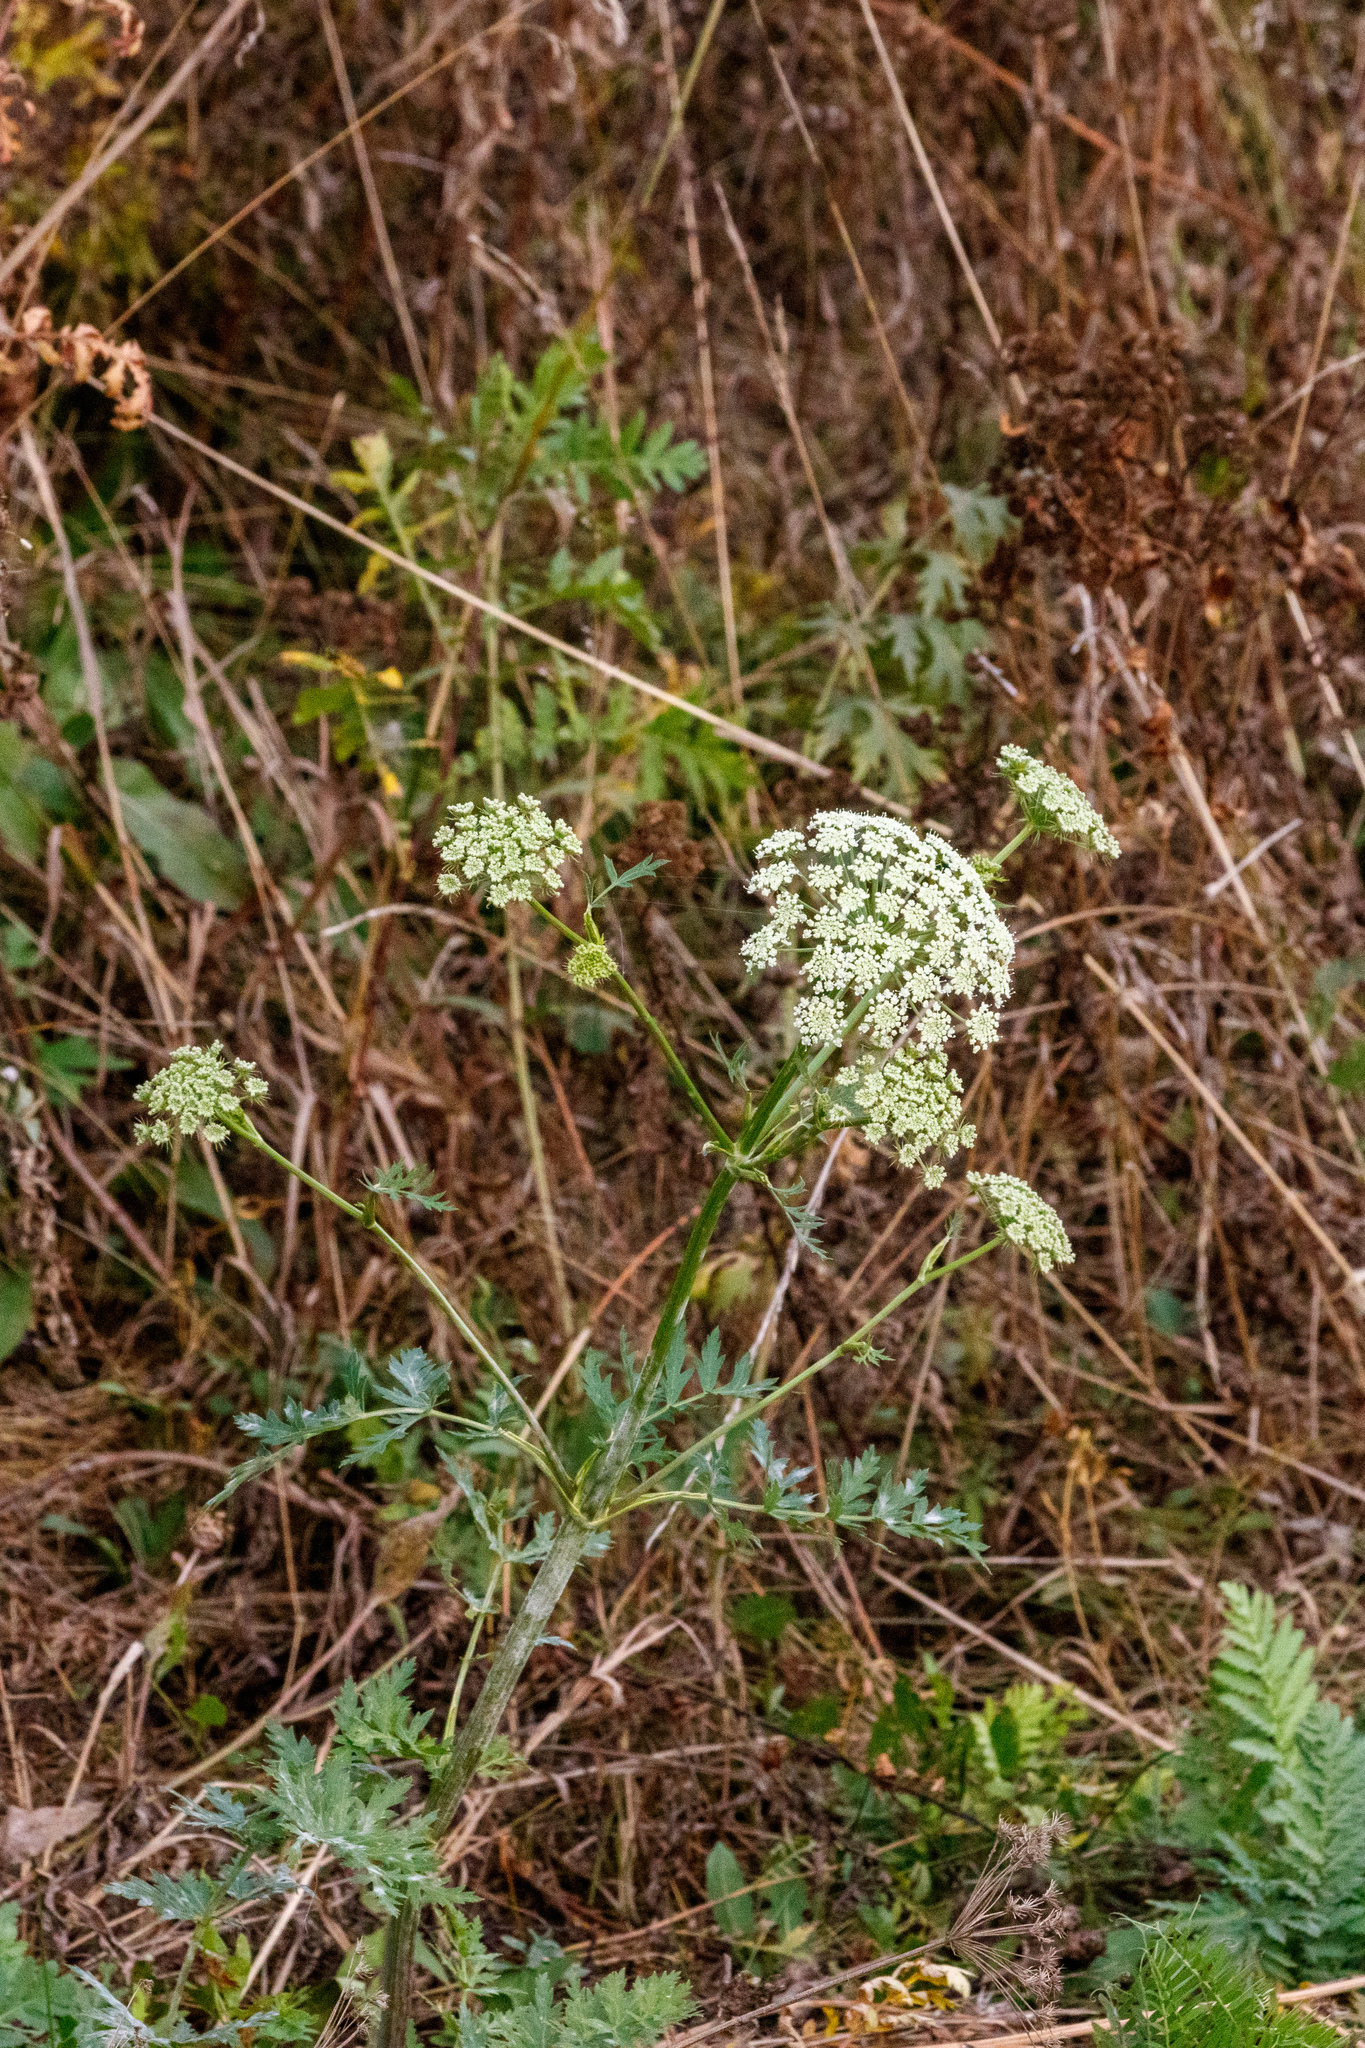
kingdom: Plantae
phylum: Tracheophyta
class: Magnoliopsida
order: Apiales
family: Apiaceae
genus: Seseli
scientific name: Seseli libanotis
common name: Mooncarrot
